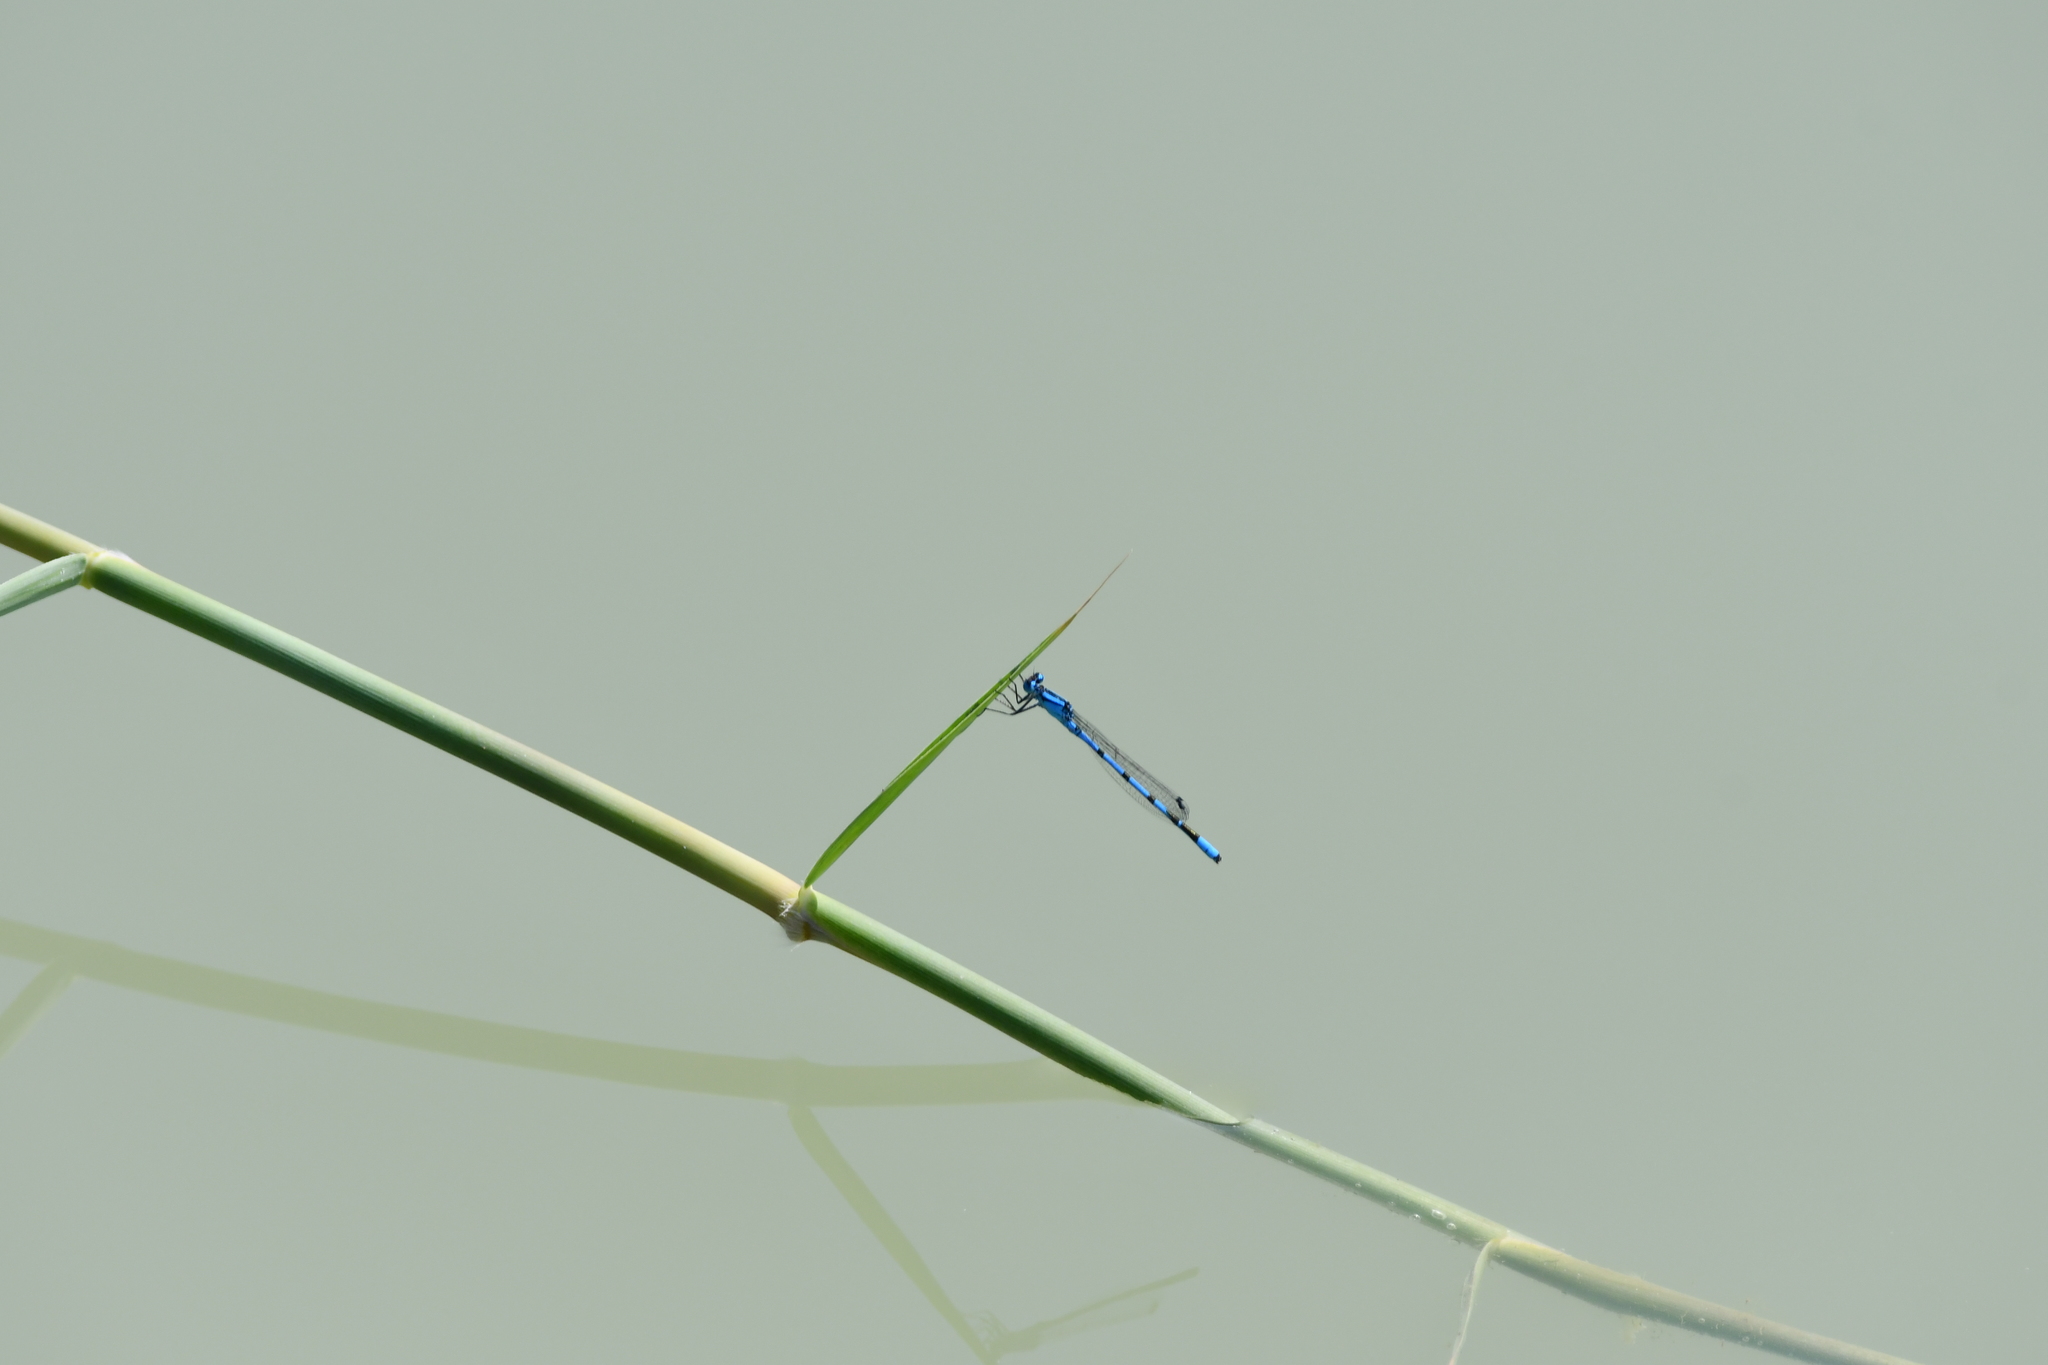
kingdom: Animalia
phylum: Arthropoda
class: Insecta
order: Odonata
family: Coenagrionidae
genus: Enallagma
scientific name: Enallagma cyathigerum
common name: Common blue damselfly
